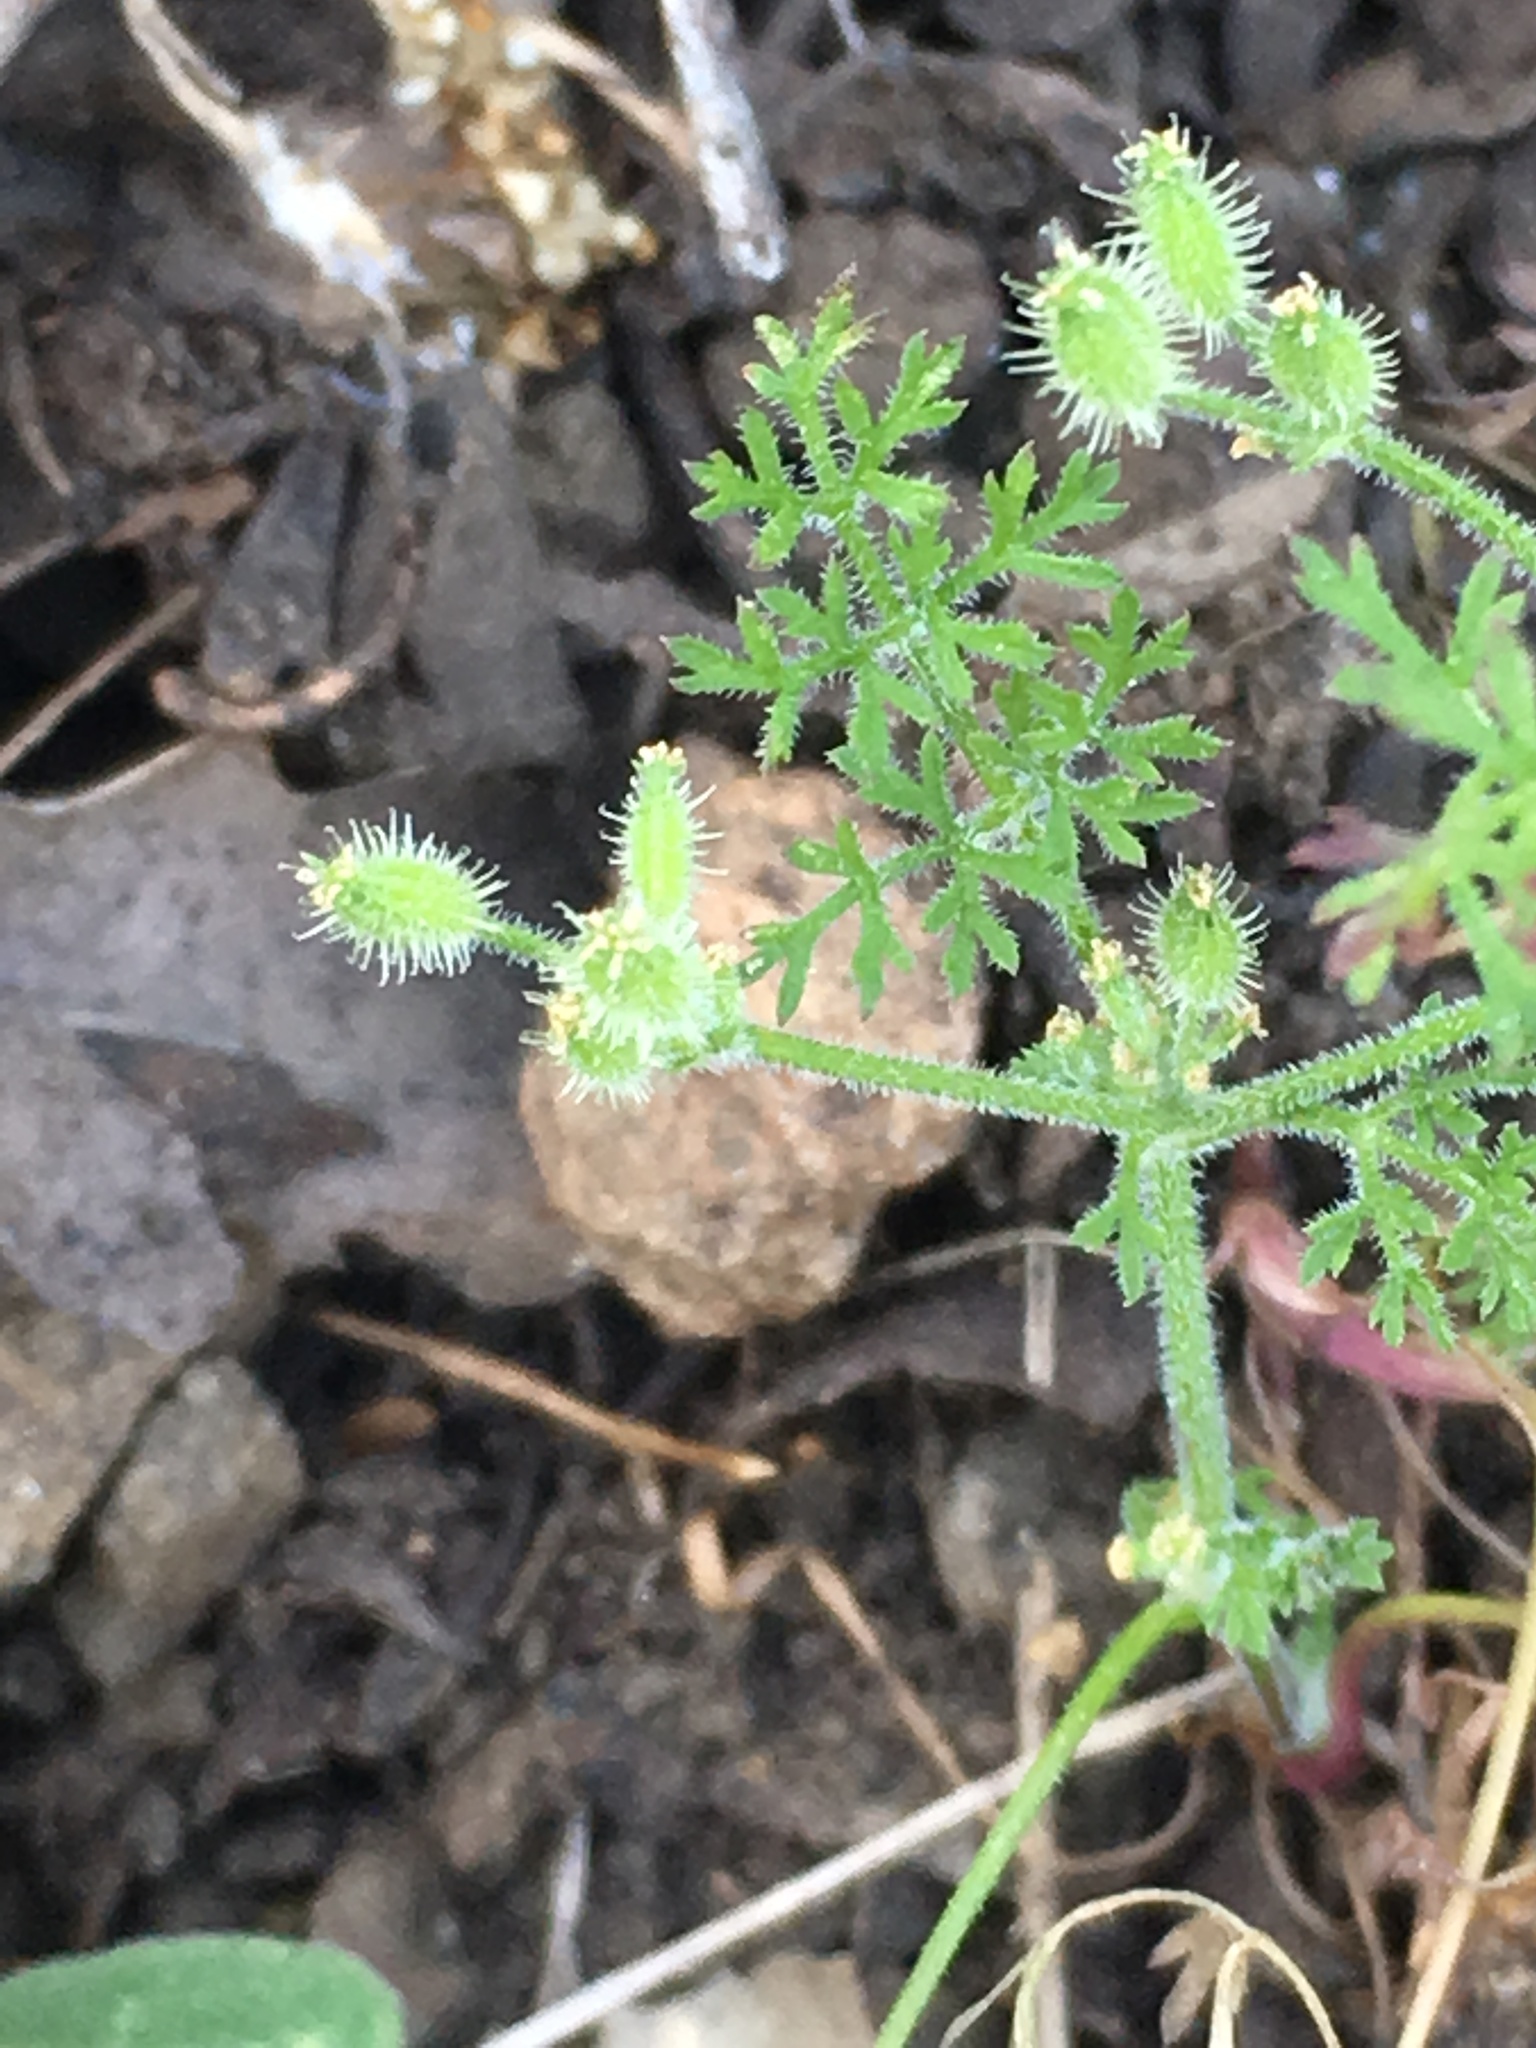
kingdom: Plantae
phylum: Tracheophyta
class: Magnoliopsida
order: Apiales
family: Apiaceae
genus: Yabea
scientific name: Yabea microcarpa
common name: False carrot
